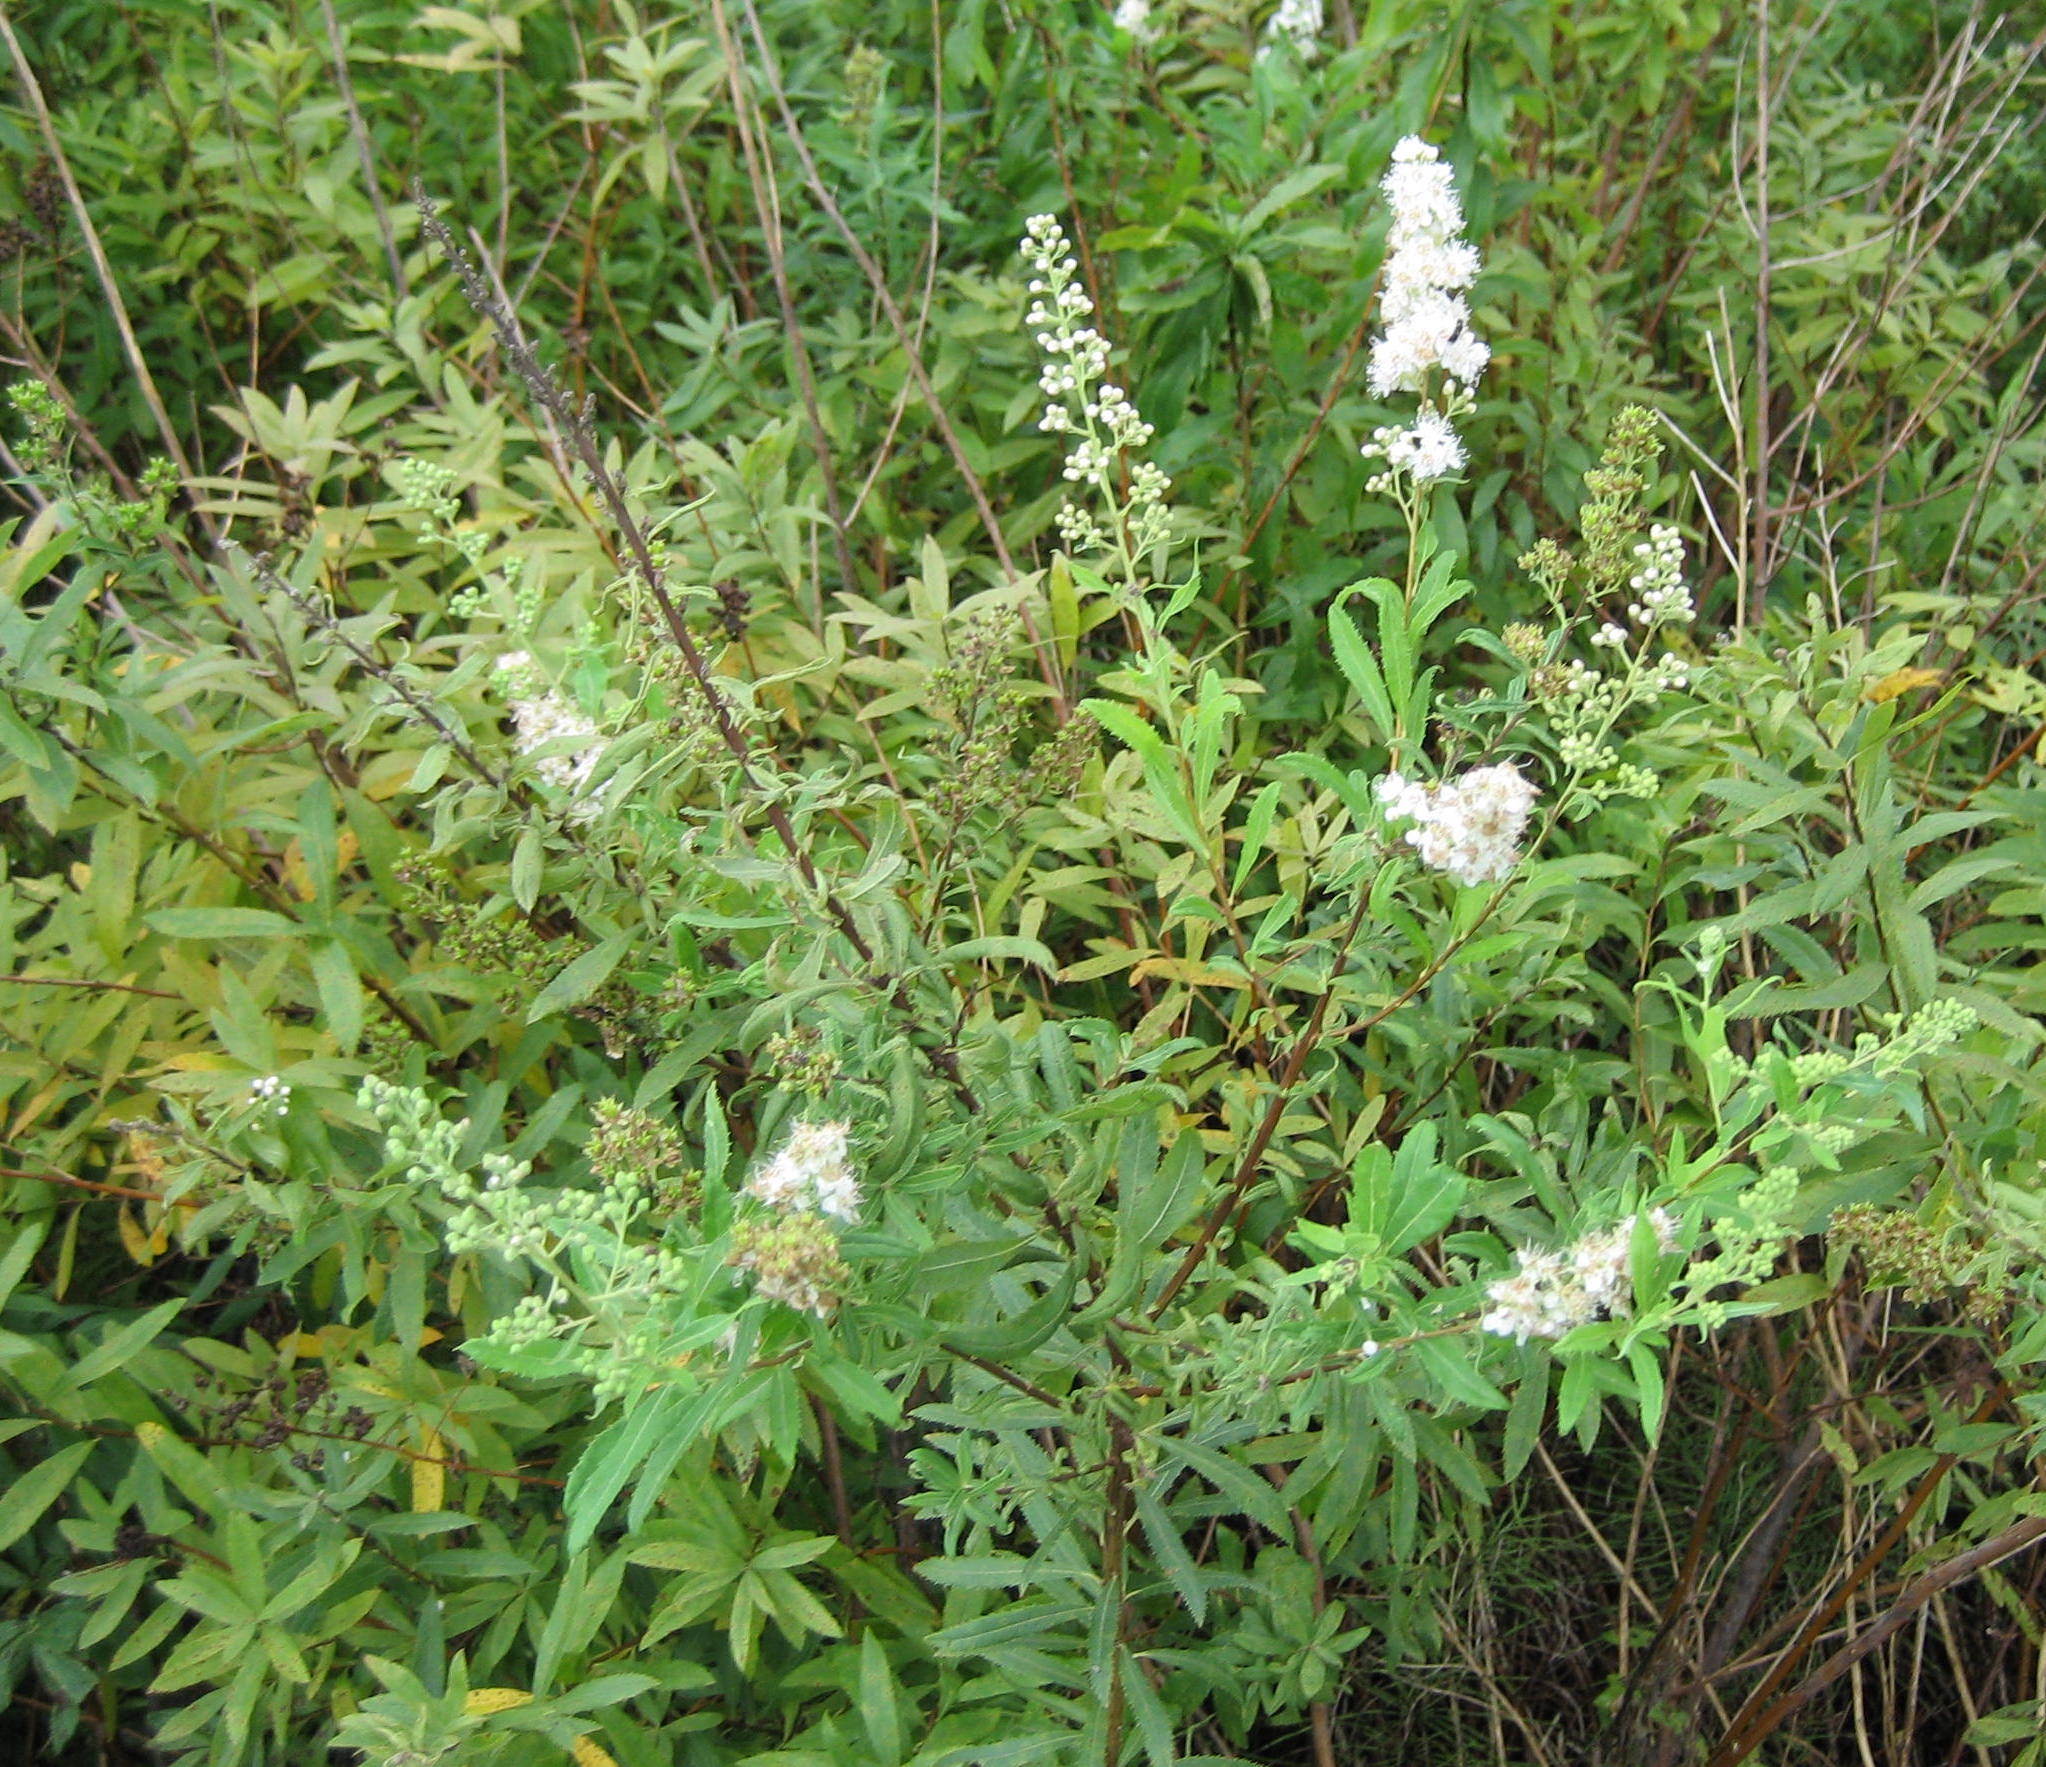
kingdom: Plantae
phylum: Tracheophyta
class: Magnoliopsida
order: Rosales
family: Rosaceae
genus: Spiraea
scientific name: Spiraea alba
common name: Pale bridewort
